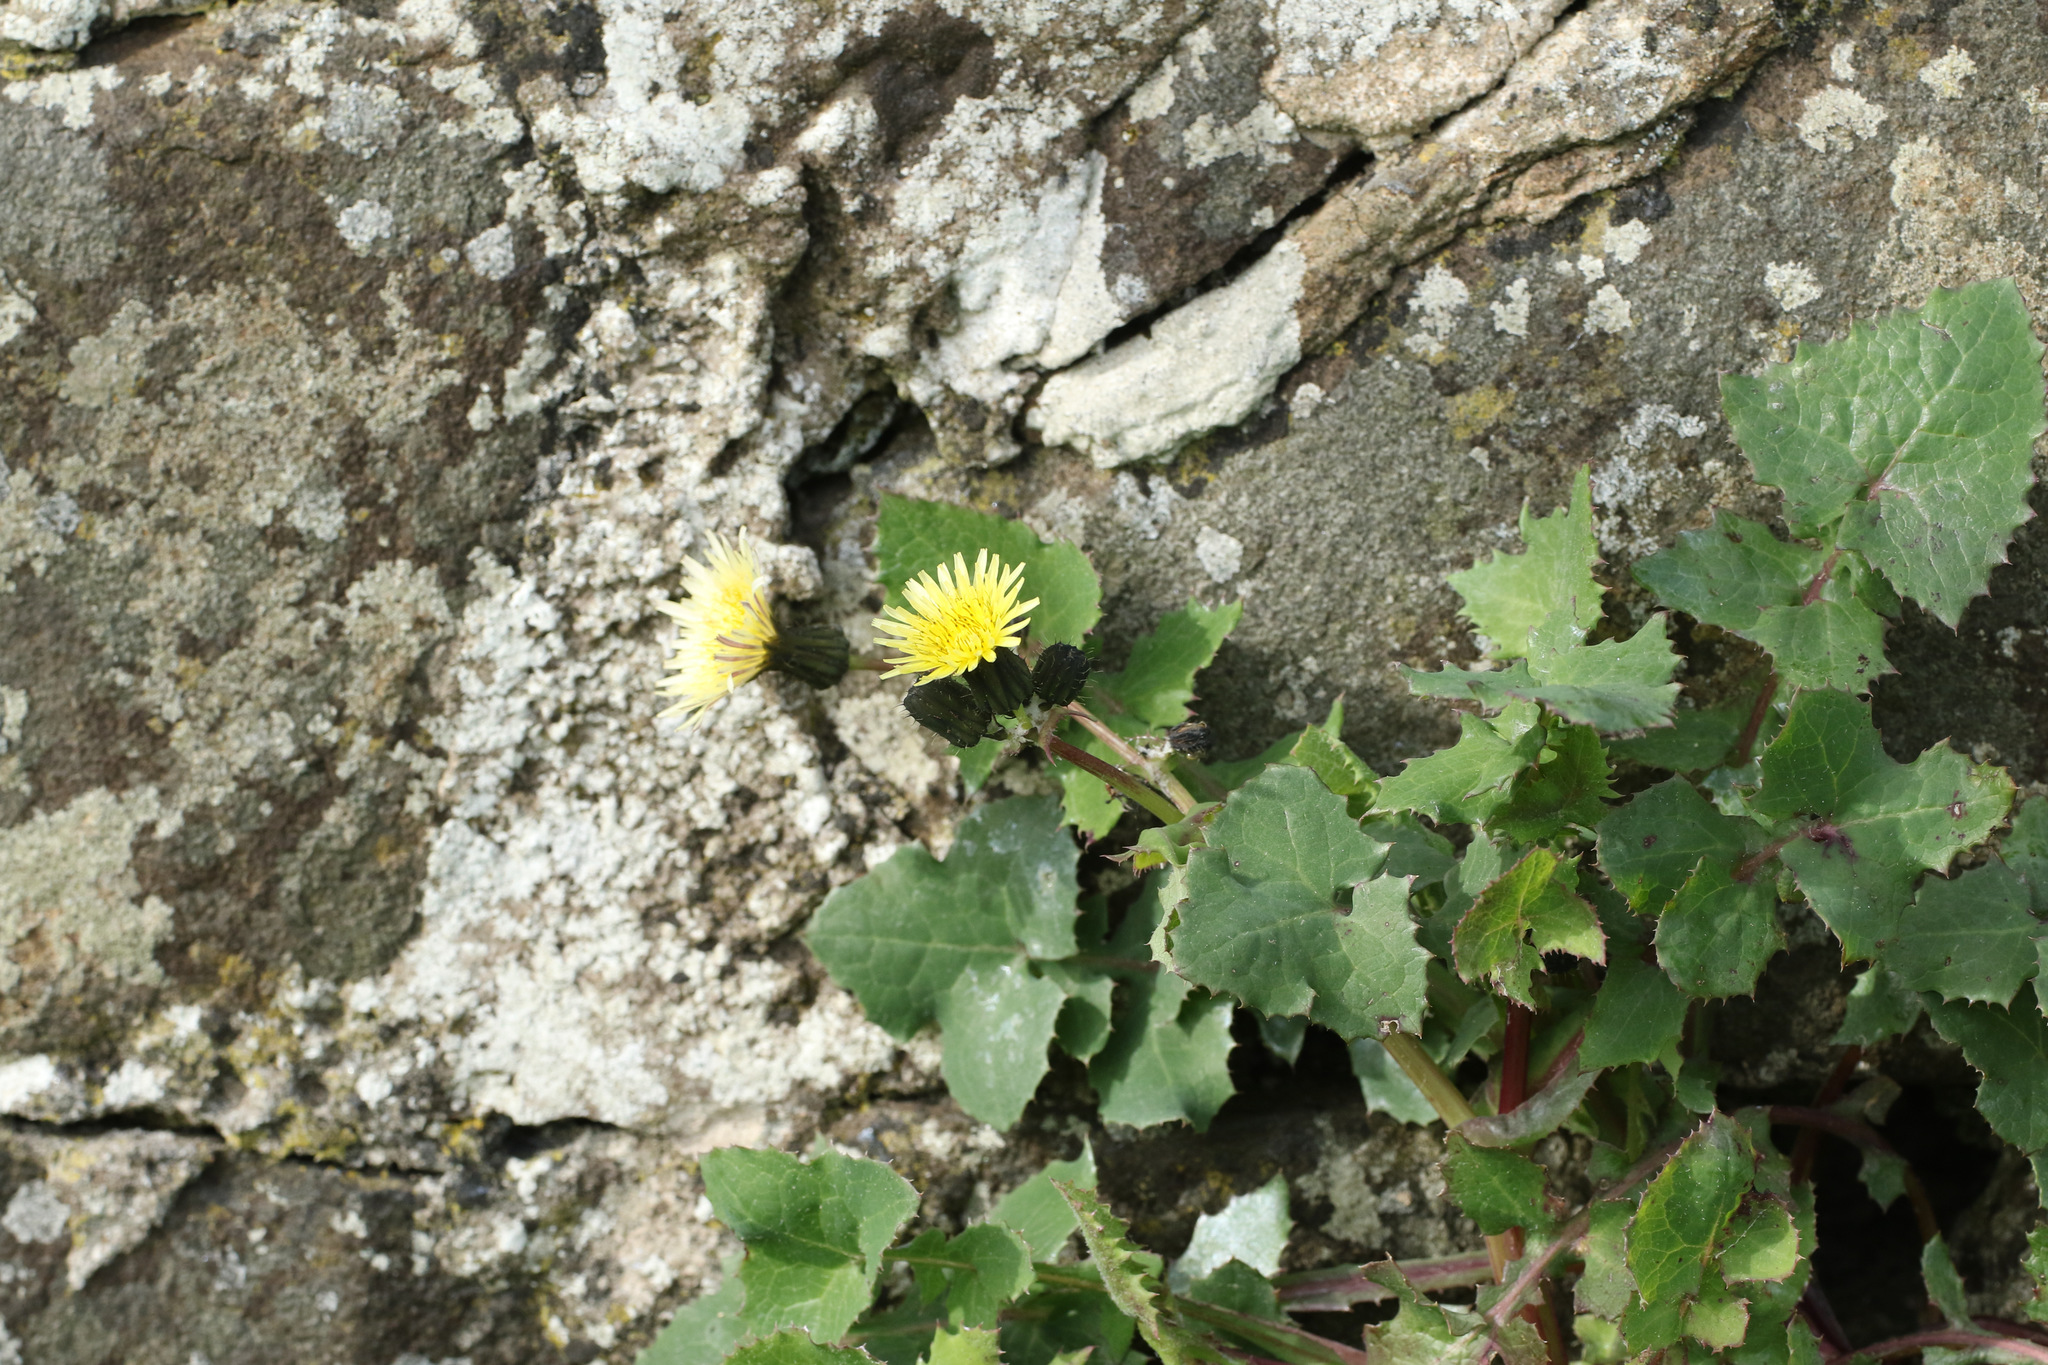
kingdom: Plantae
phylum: Tracheophyta
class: Magnoliopsida
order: Asterales
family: Asteraceae
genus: Sonchus
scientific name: Sonchus oleraceus
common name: Common sowthistle
